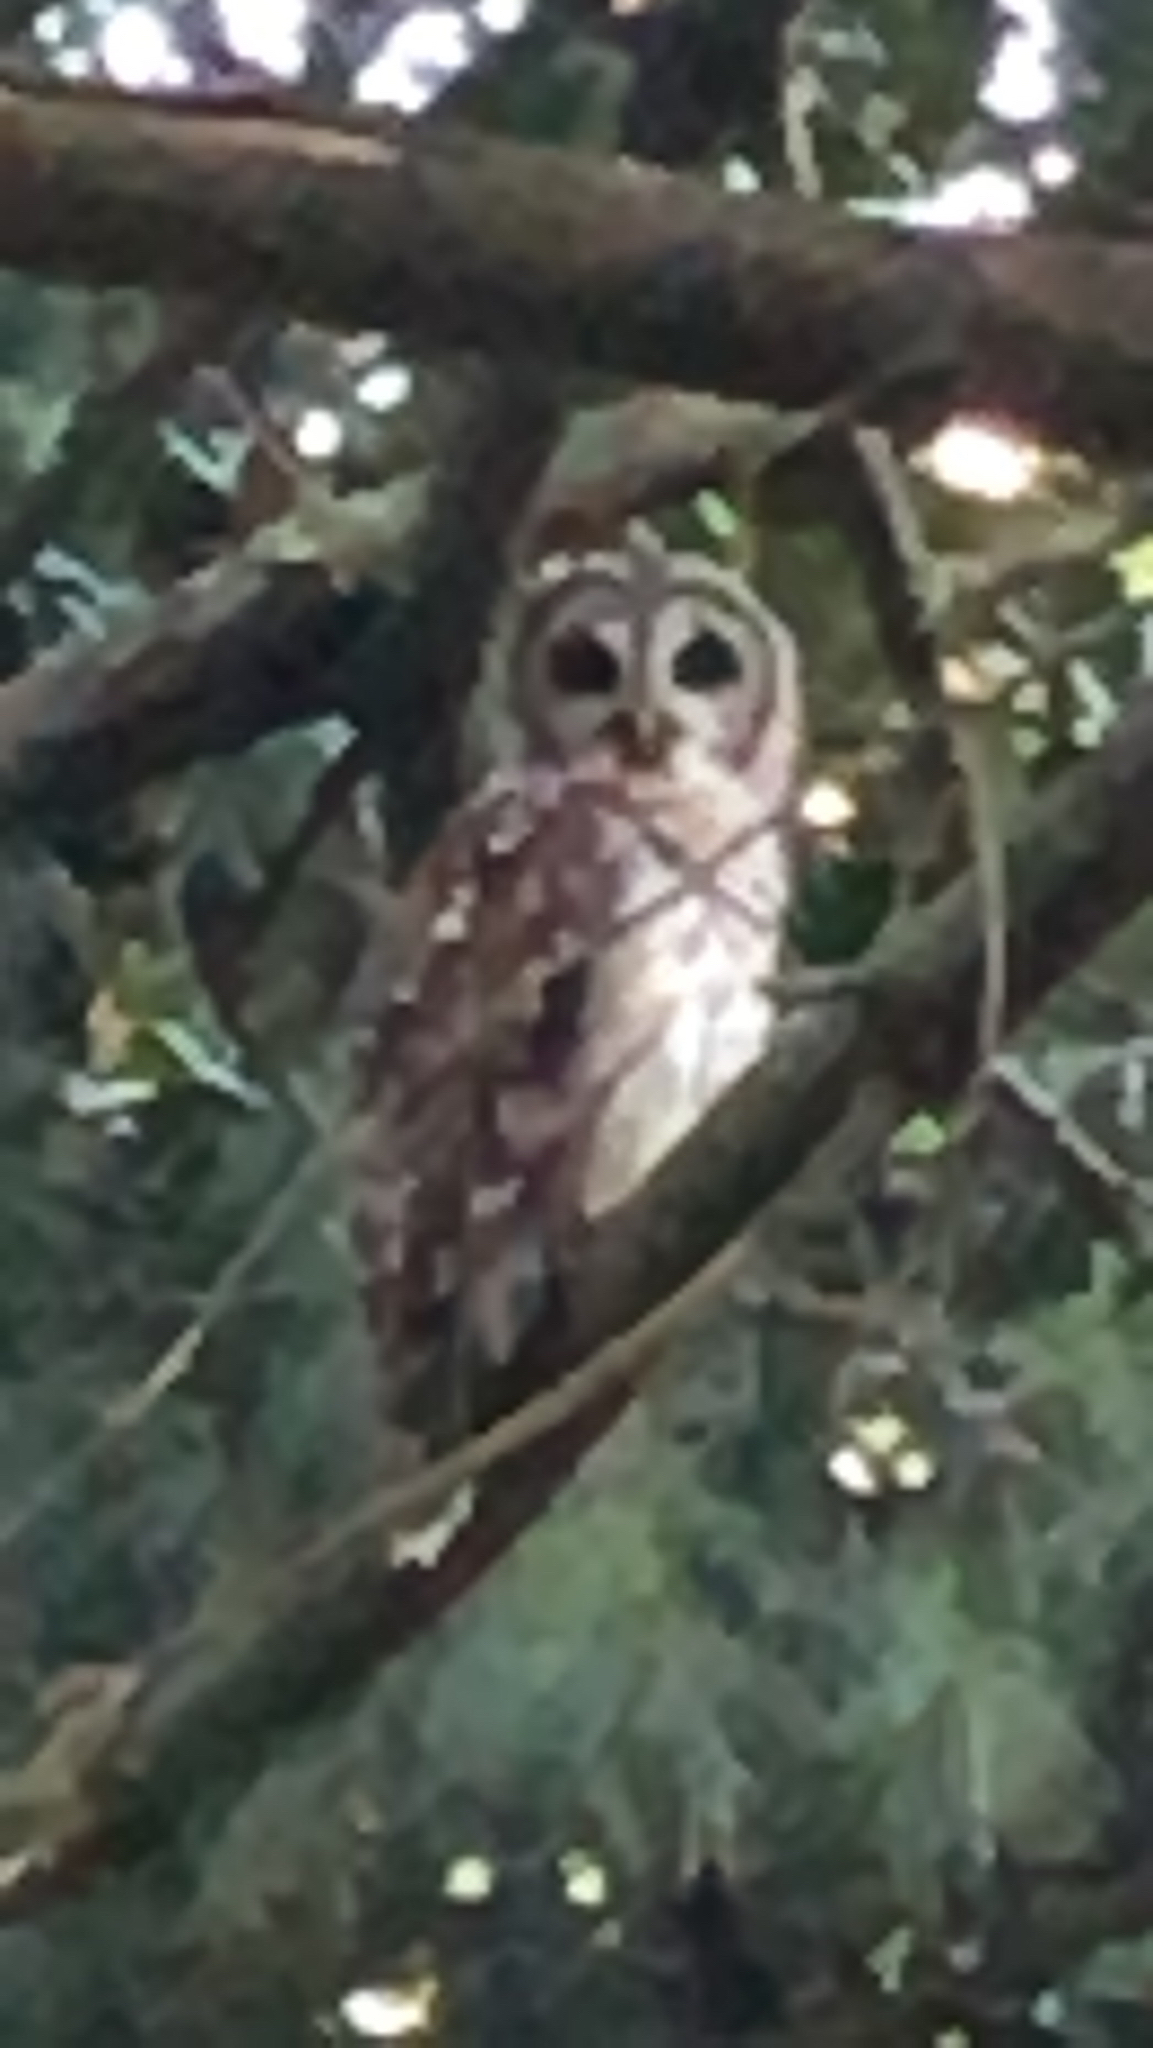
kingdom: Animalia
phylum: Chordata
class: Aves
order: Strigiformes
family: Strigidae
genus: Strix
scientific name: Strix varia
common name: Barred owl
